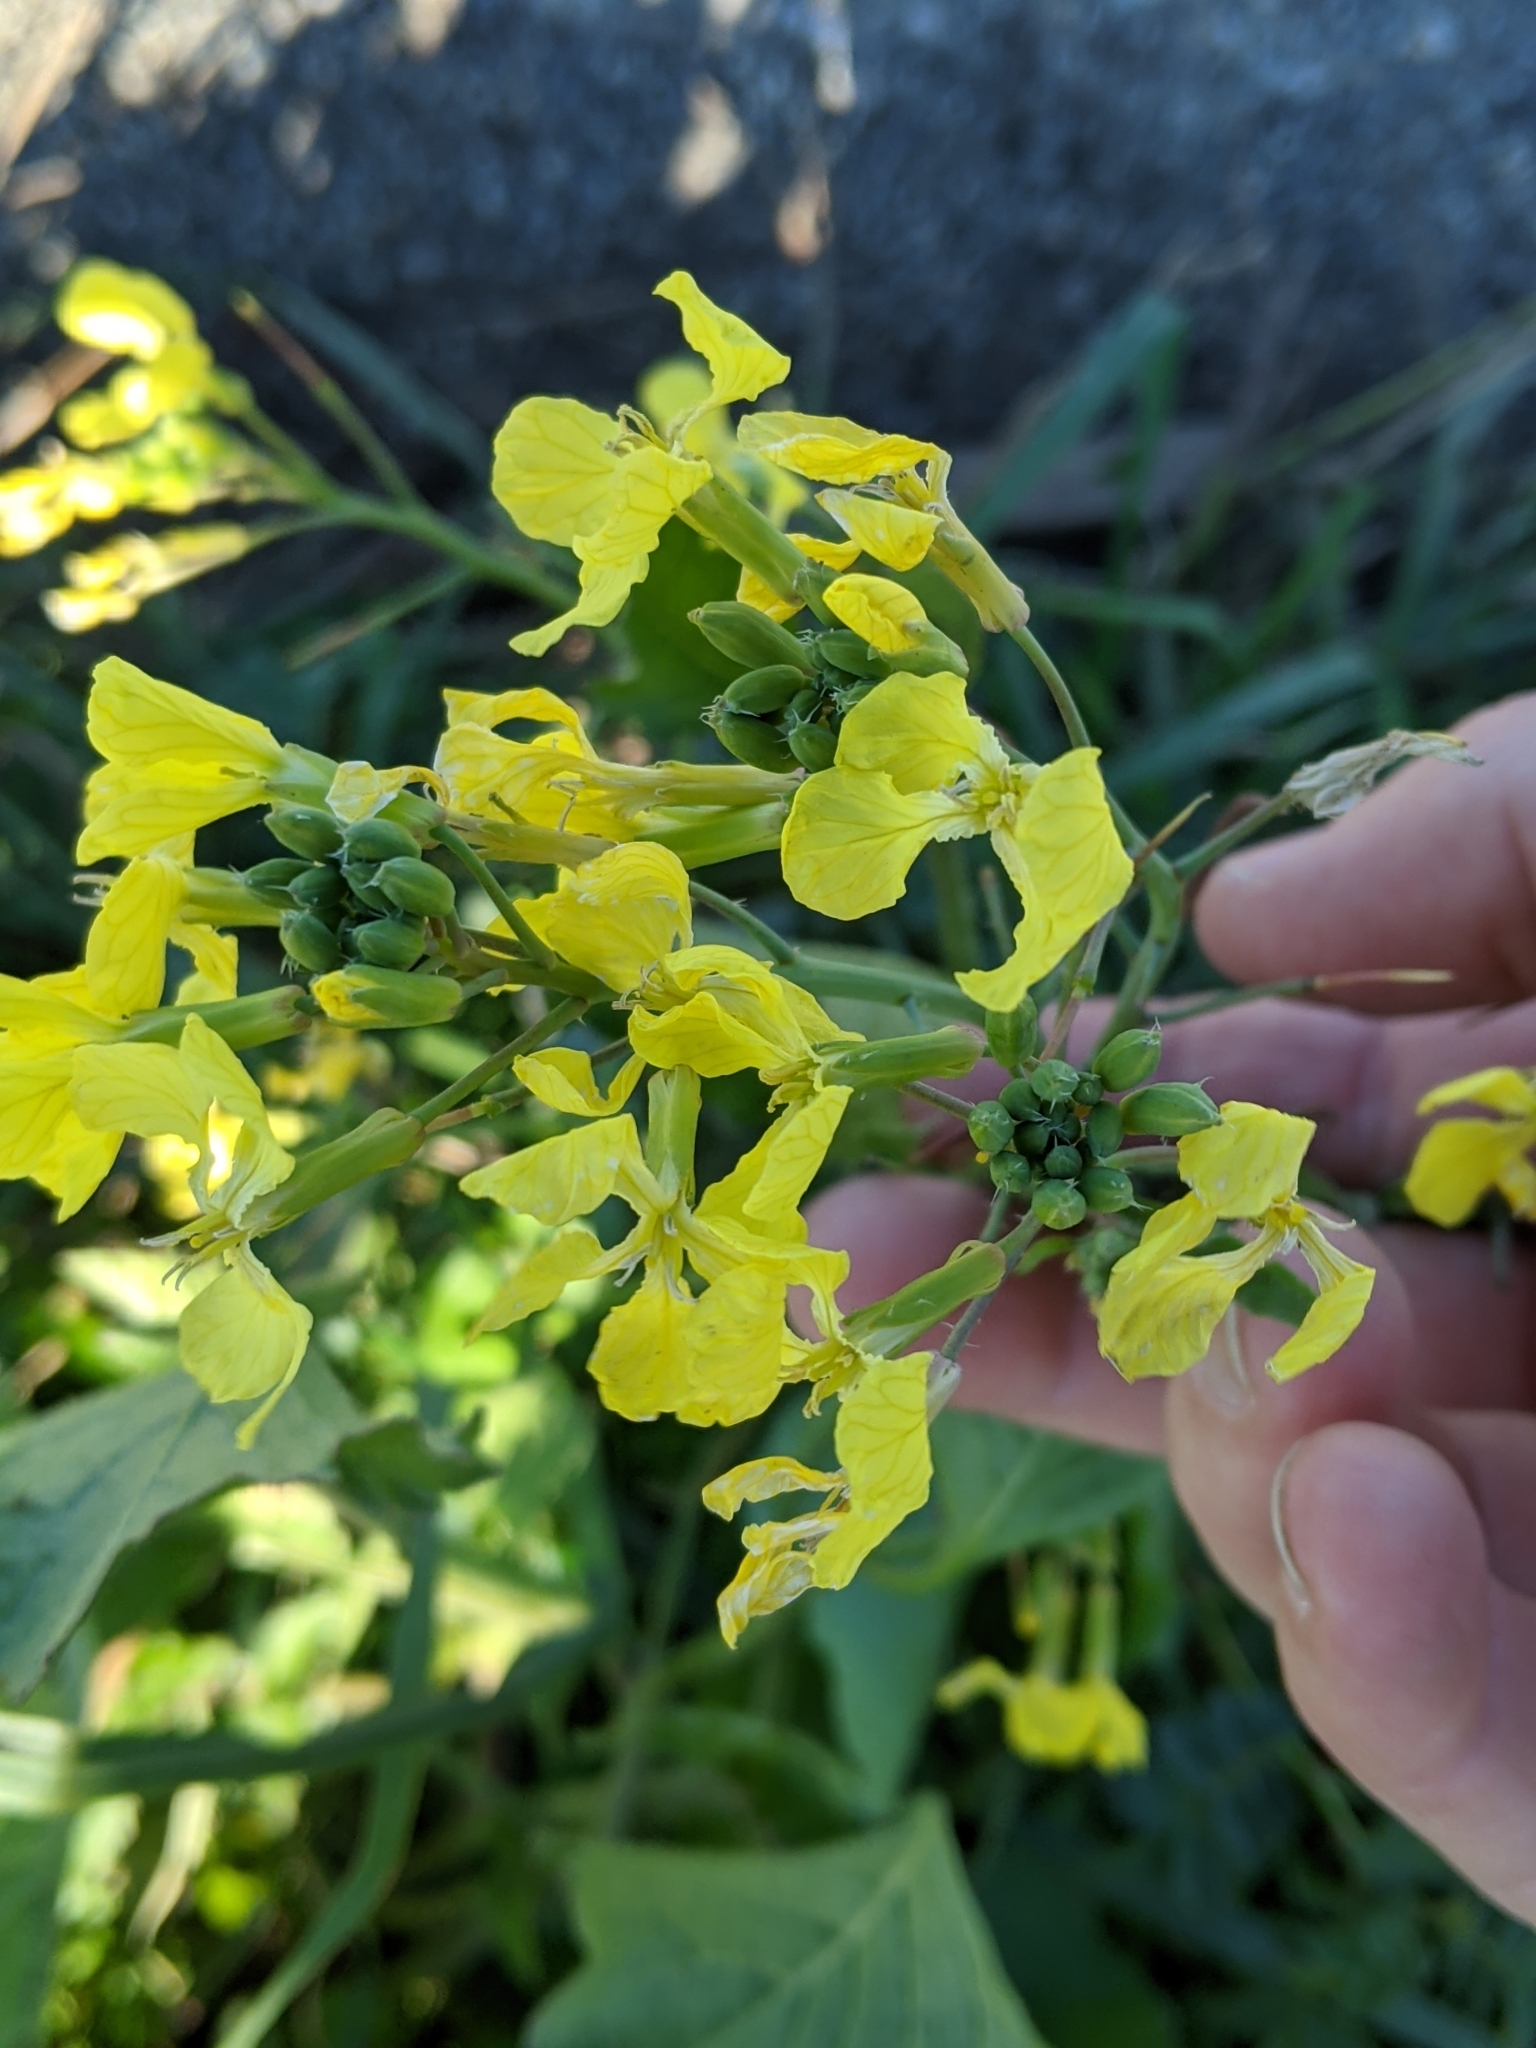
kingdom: Plantae
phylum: Tracheophyta
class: Magnoliopsida
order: Brassicales
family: Brassicaceae
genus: Raphanus
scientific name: Raphanus raphanistrum
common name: Wild radish
